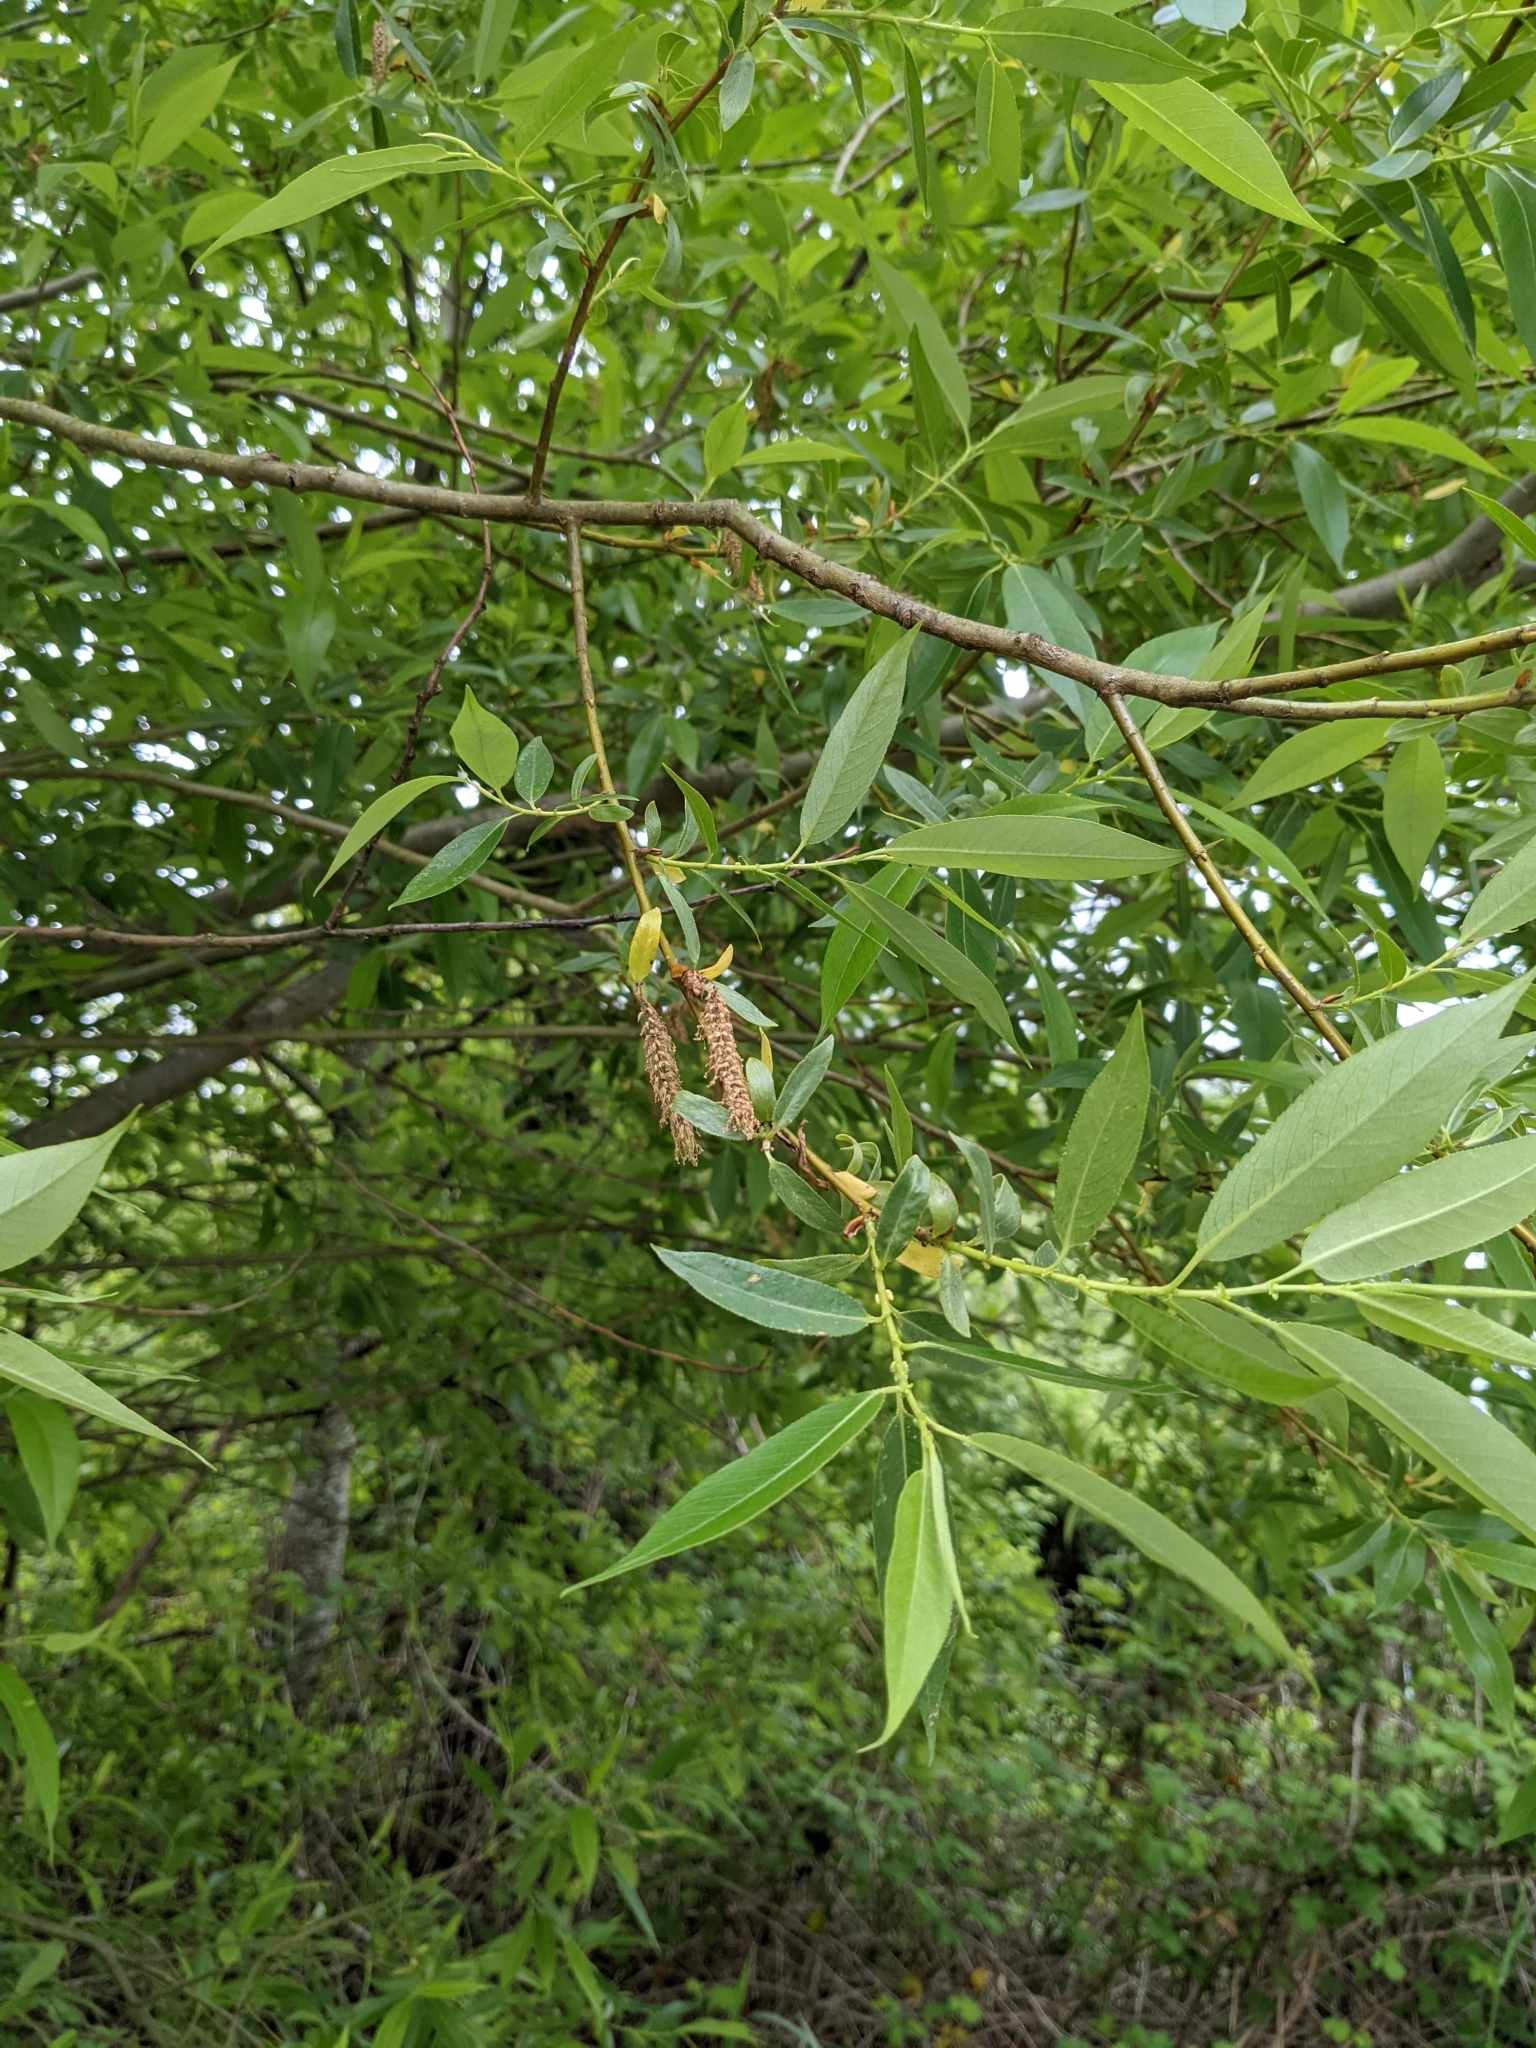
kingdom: Plantae
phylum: Tracheophyta
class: Magnoliopsida
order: Malpighiales
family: Salicaceae
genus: Salix
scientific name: Salix lucida
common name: Shining willow
